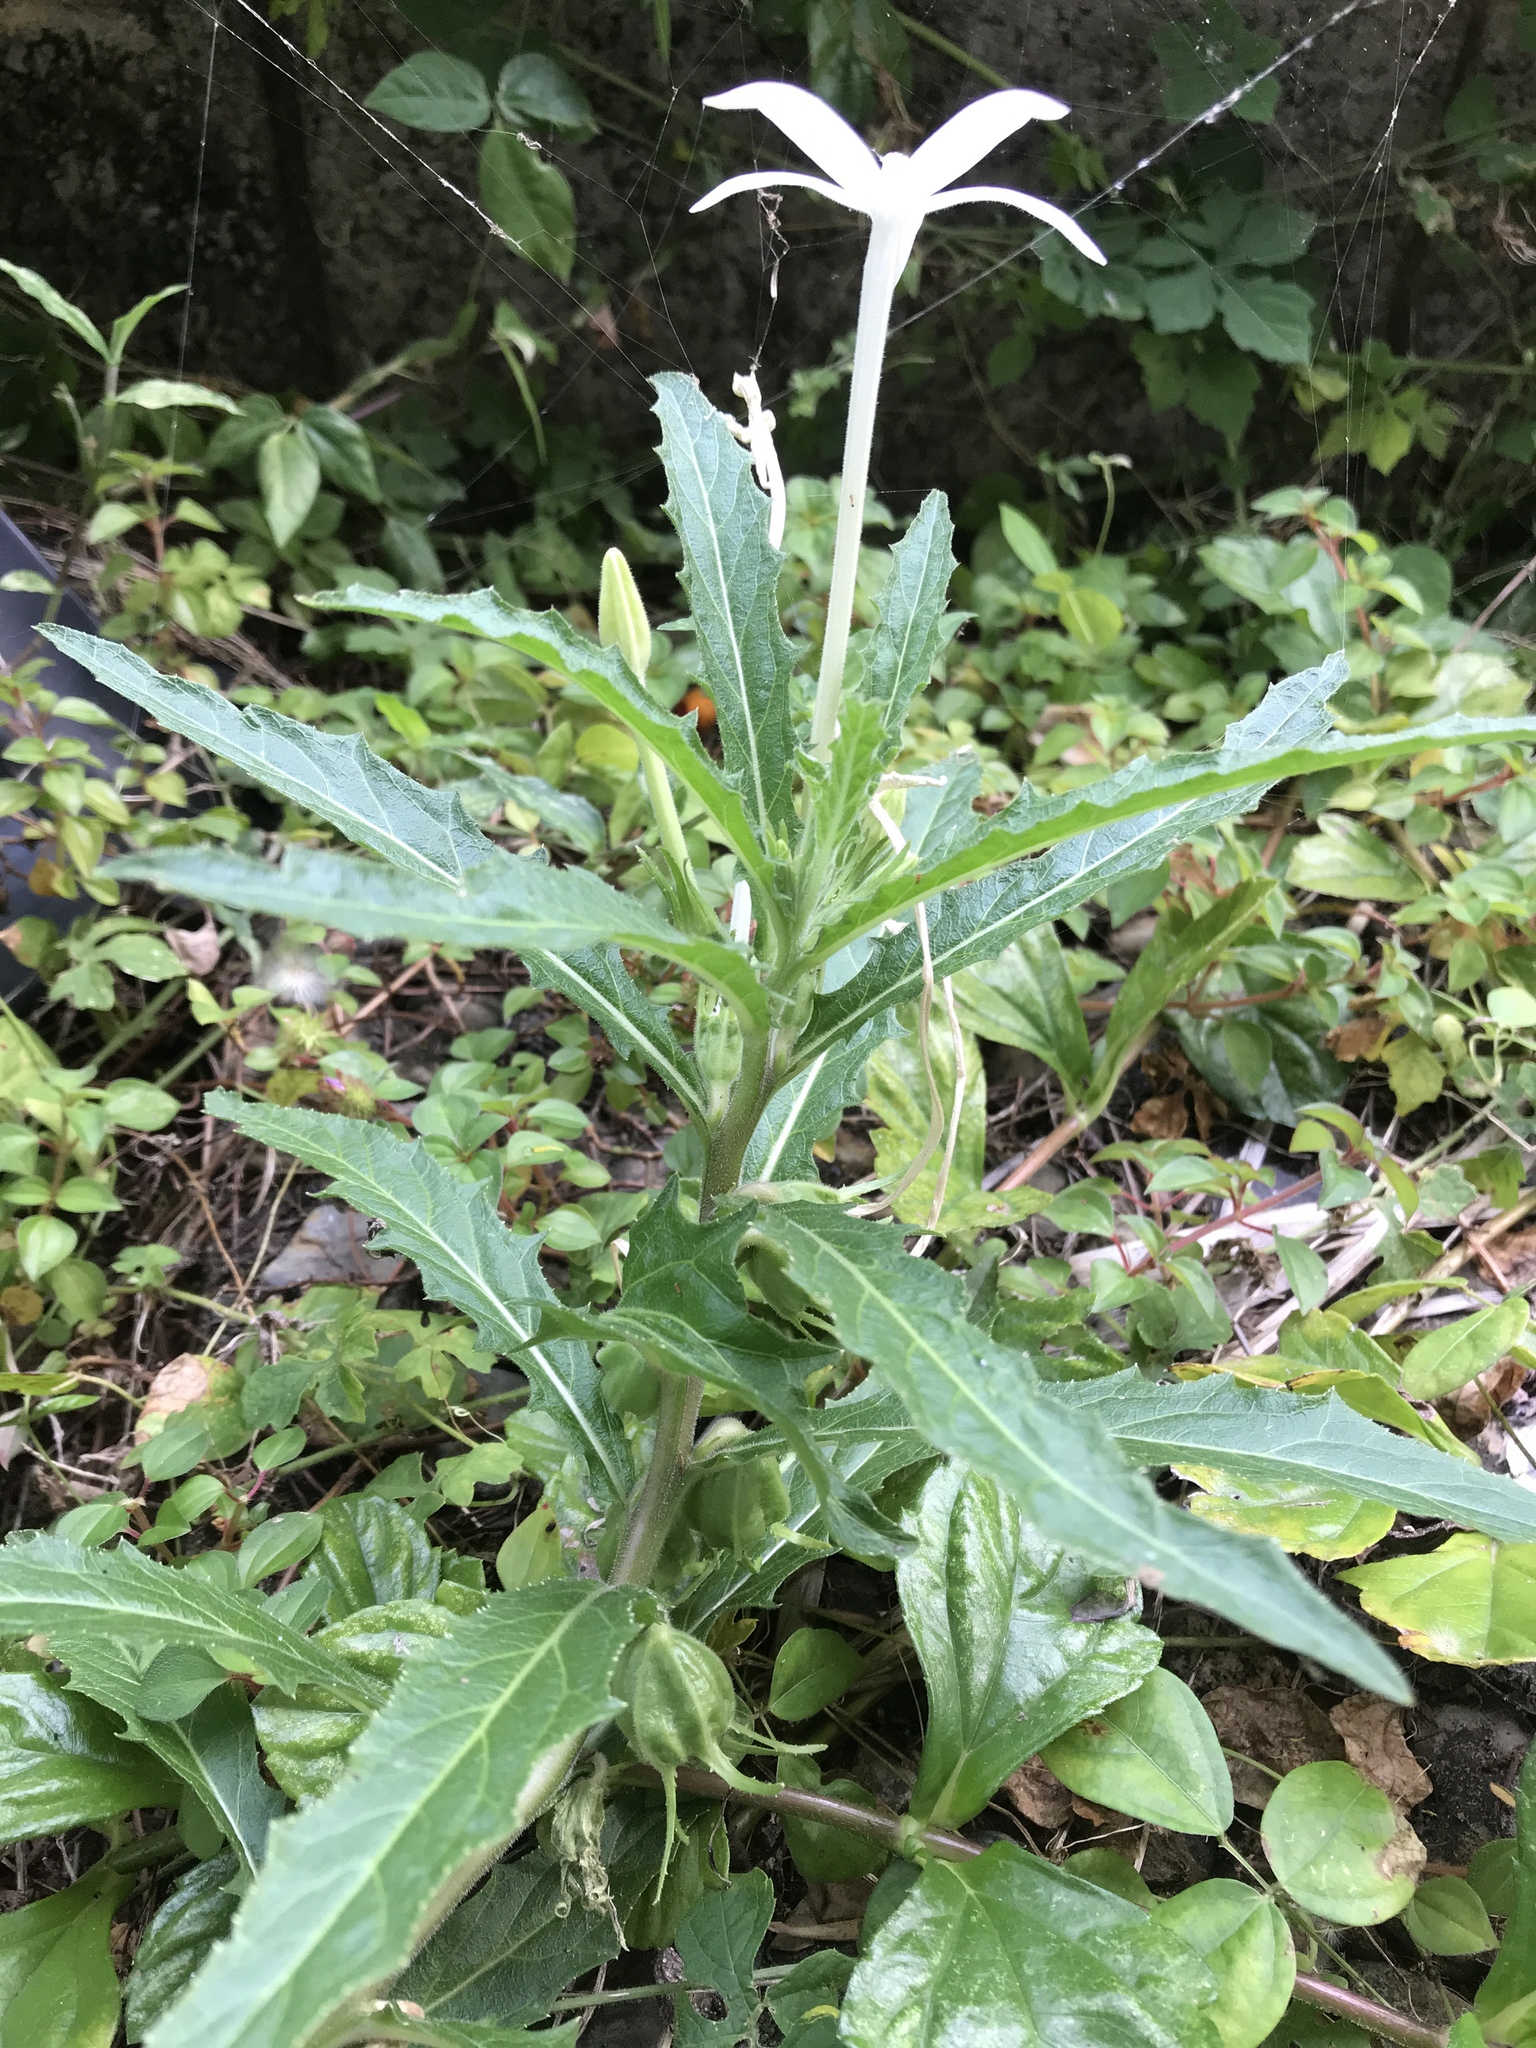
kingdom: Plantae
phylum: Tracheophyta
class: Magnoliopsida
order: Asterales
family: Campanulaceae
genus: Hippobroma
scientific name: Hippobroma longiflora
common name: Madamfate
